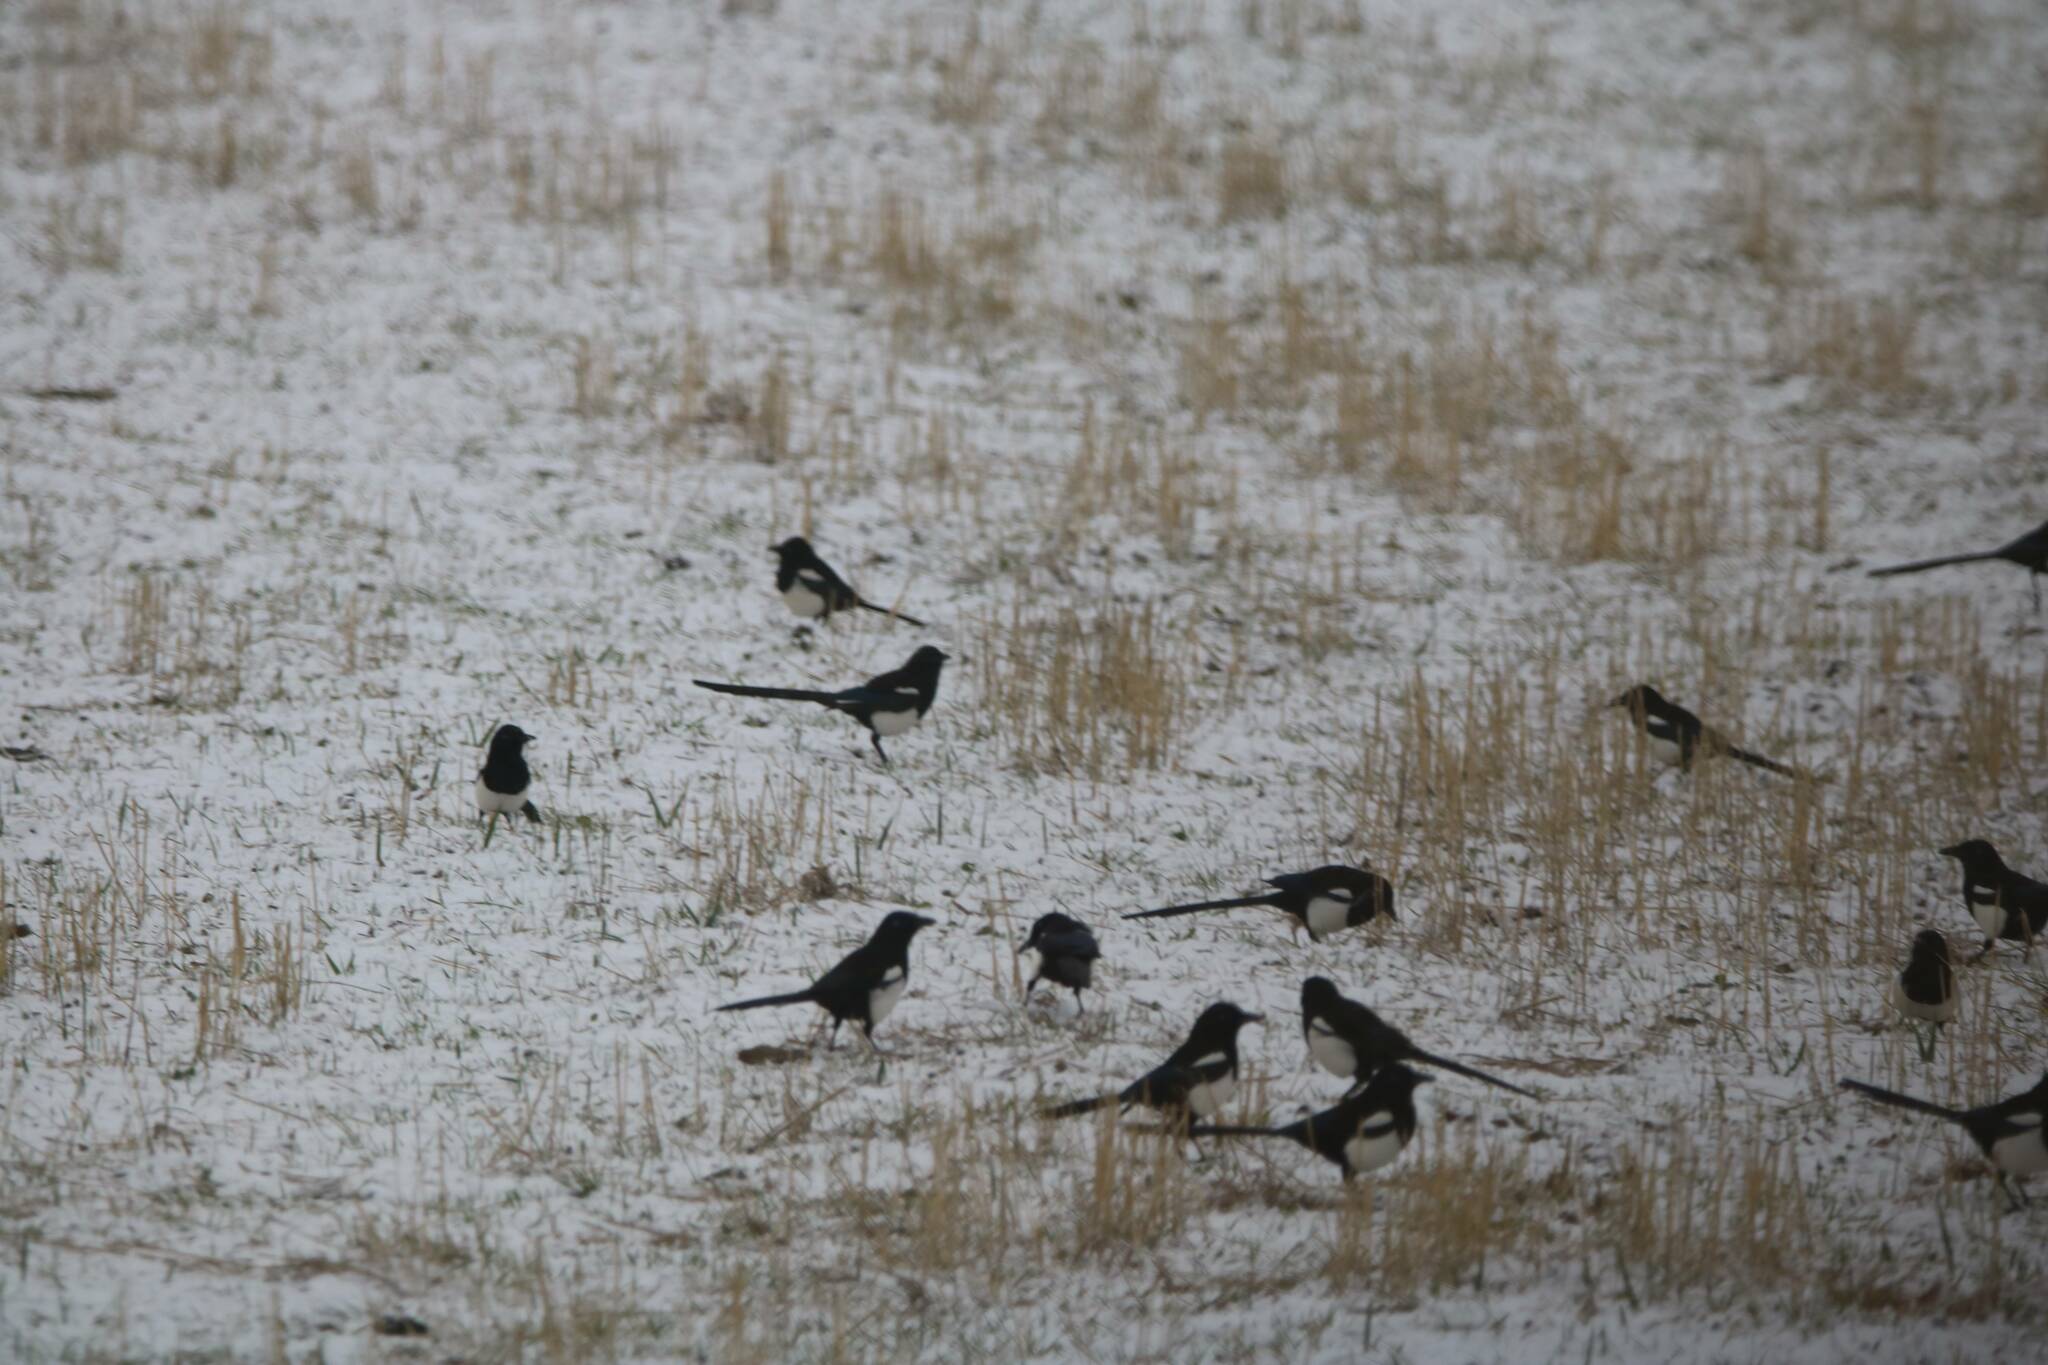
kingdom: Animalia
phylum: Chordata
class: Aves
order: Passeriformes
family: Corvidae
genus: Pica
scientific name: Pica mauritanica
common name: Maghreb magpie
